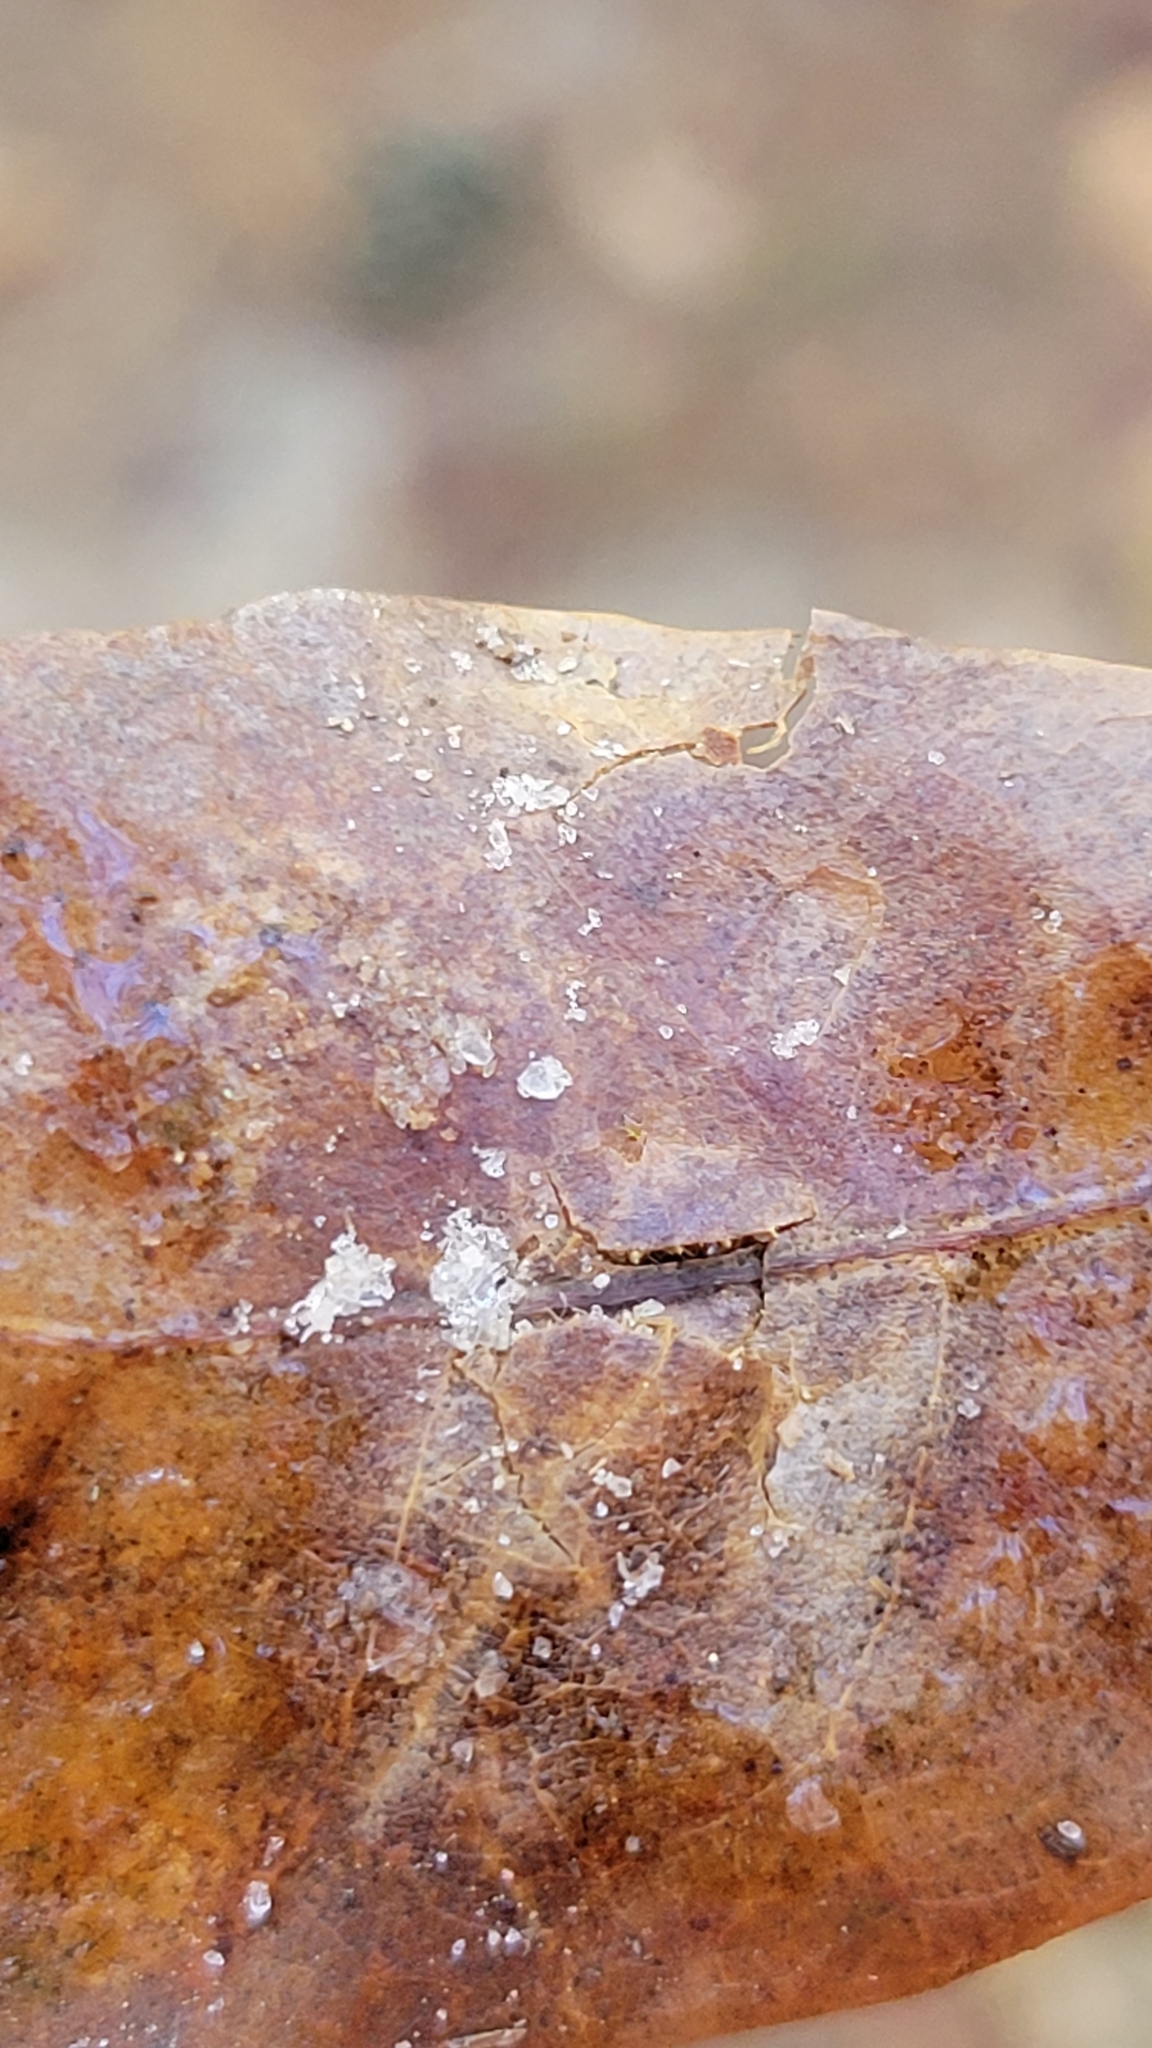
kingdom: Animalia
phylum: Arthropoda
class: Insecta
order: Hymenoptera
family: Cynipidae
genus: Andricus
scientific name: Andricus quercusflocci
